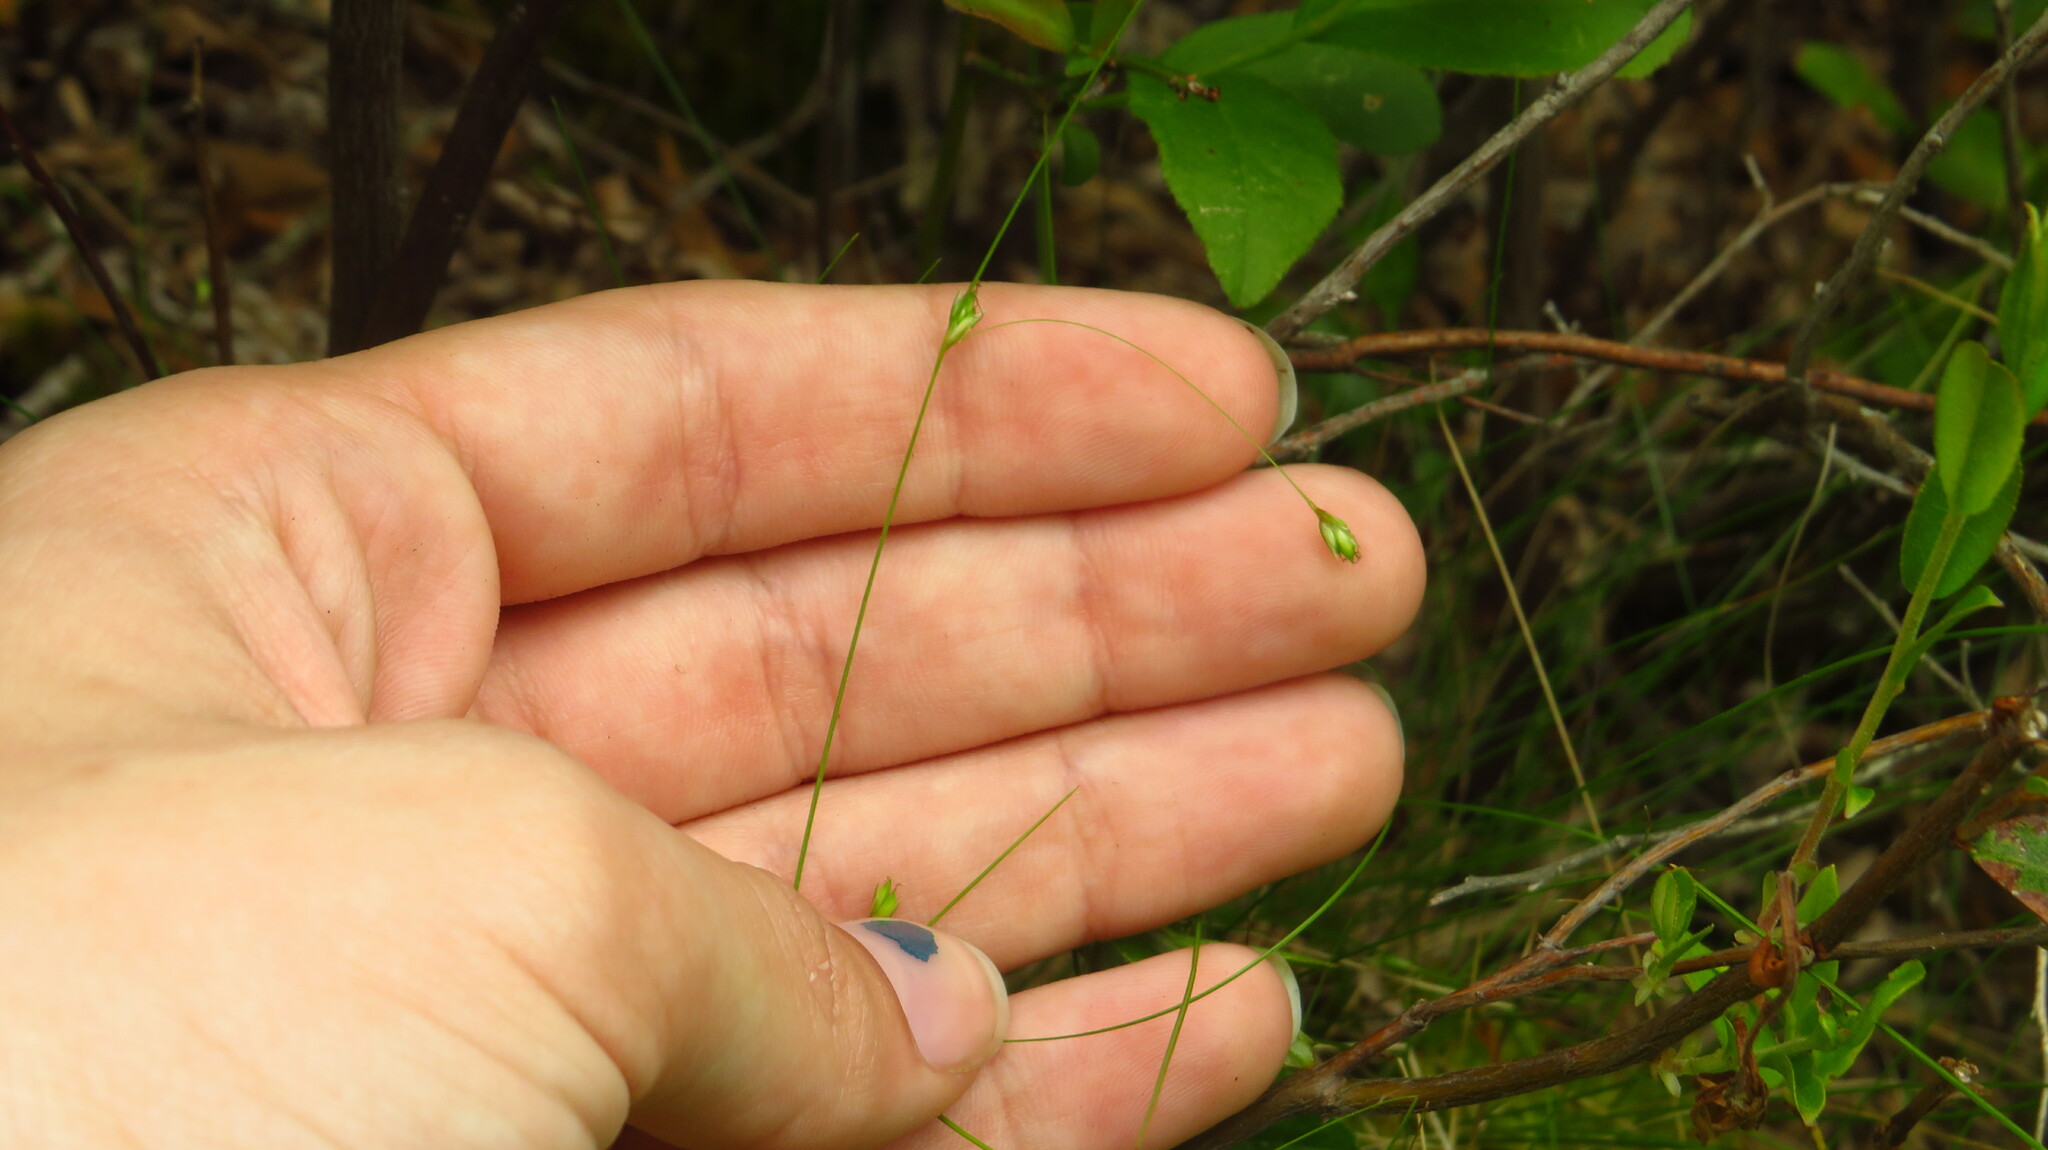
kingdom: Plantae
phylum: Tracheophyta
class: Liliopsida
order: Poales
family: Cyperaceae
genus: Carex
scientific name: Carex trisperma
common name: Three-seeded sedge
